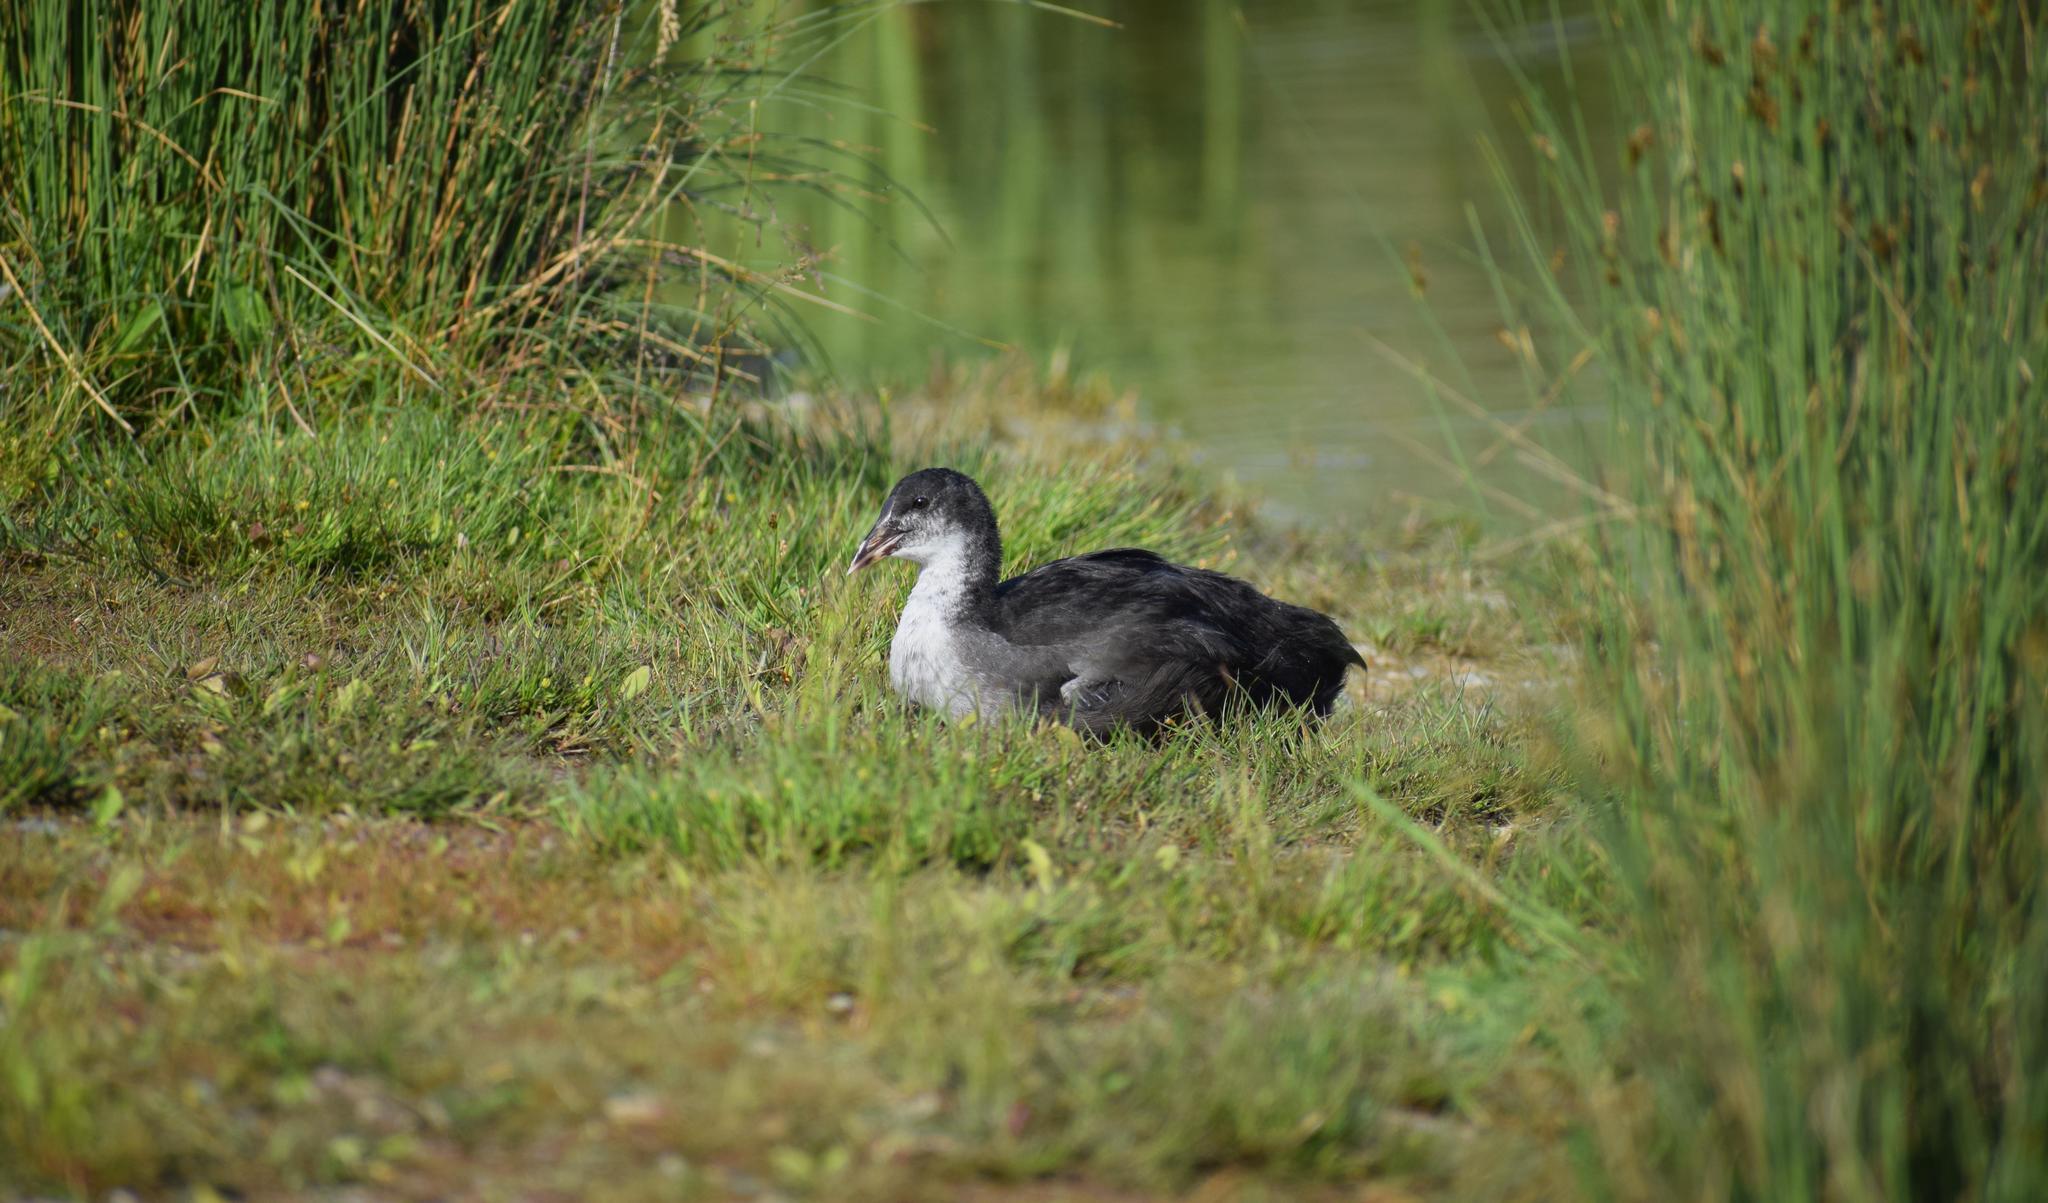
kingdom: Animalia
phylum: Chordata
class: Aves
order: Gruiformes
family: Rallidae
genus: Fulica
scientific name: Fulica atra
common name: Eurasian coot
